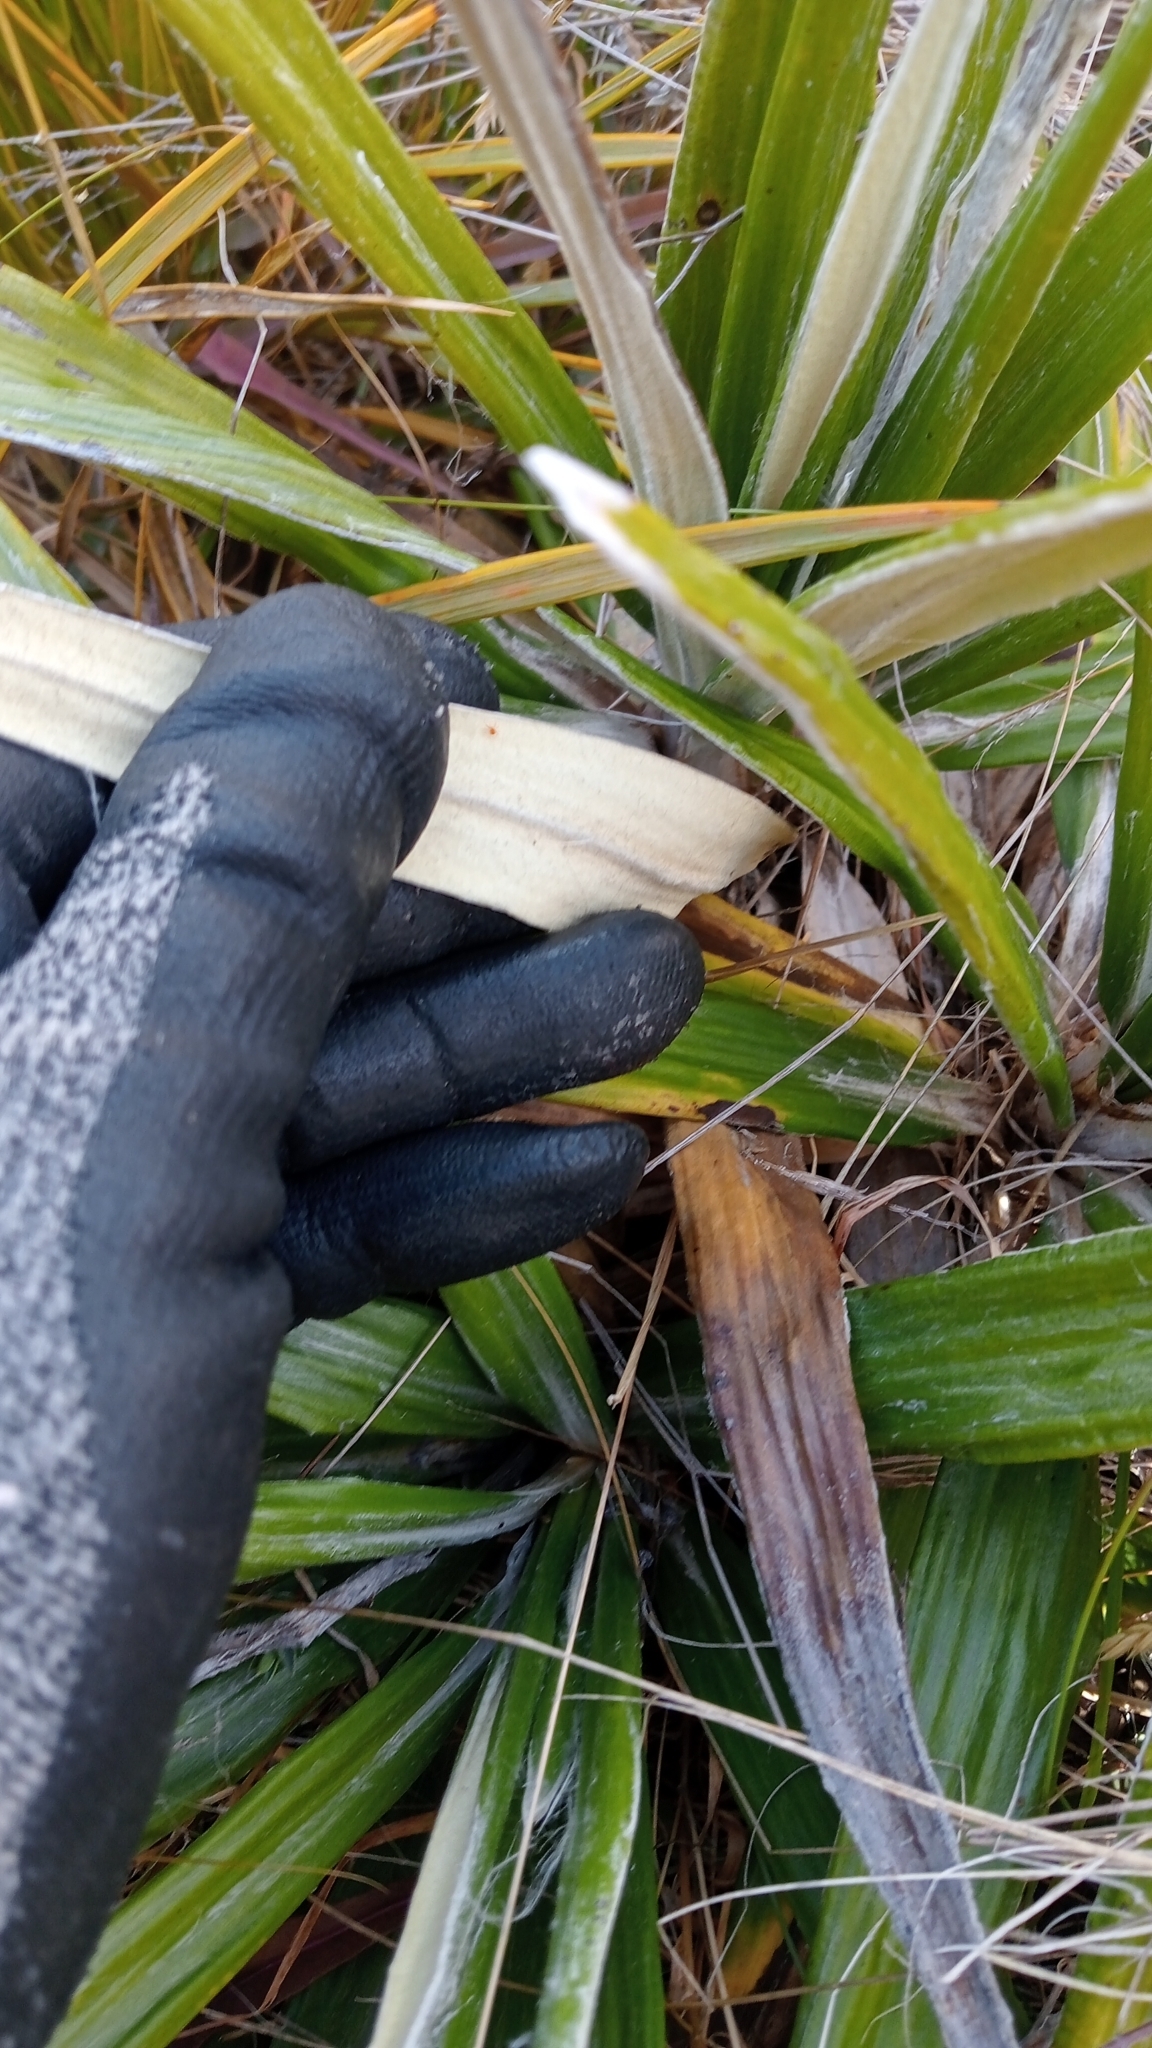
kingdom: Plantae
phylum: Tracheophyta
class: Magnoliopsida
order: Asterales
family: Asteraceae
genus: Celmisia
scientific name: Celmisia spectabilis
